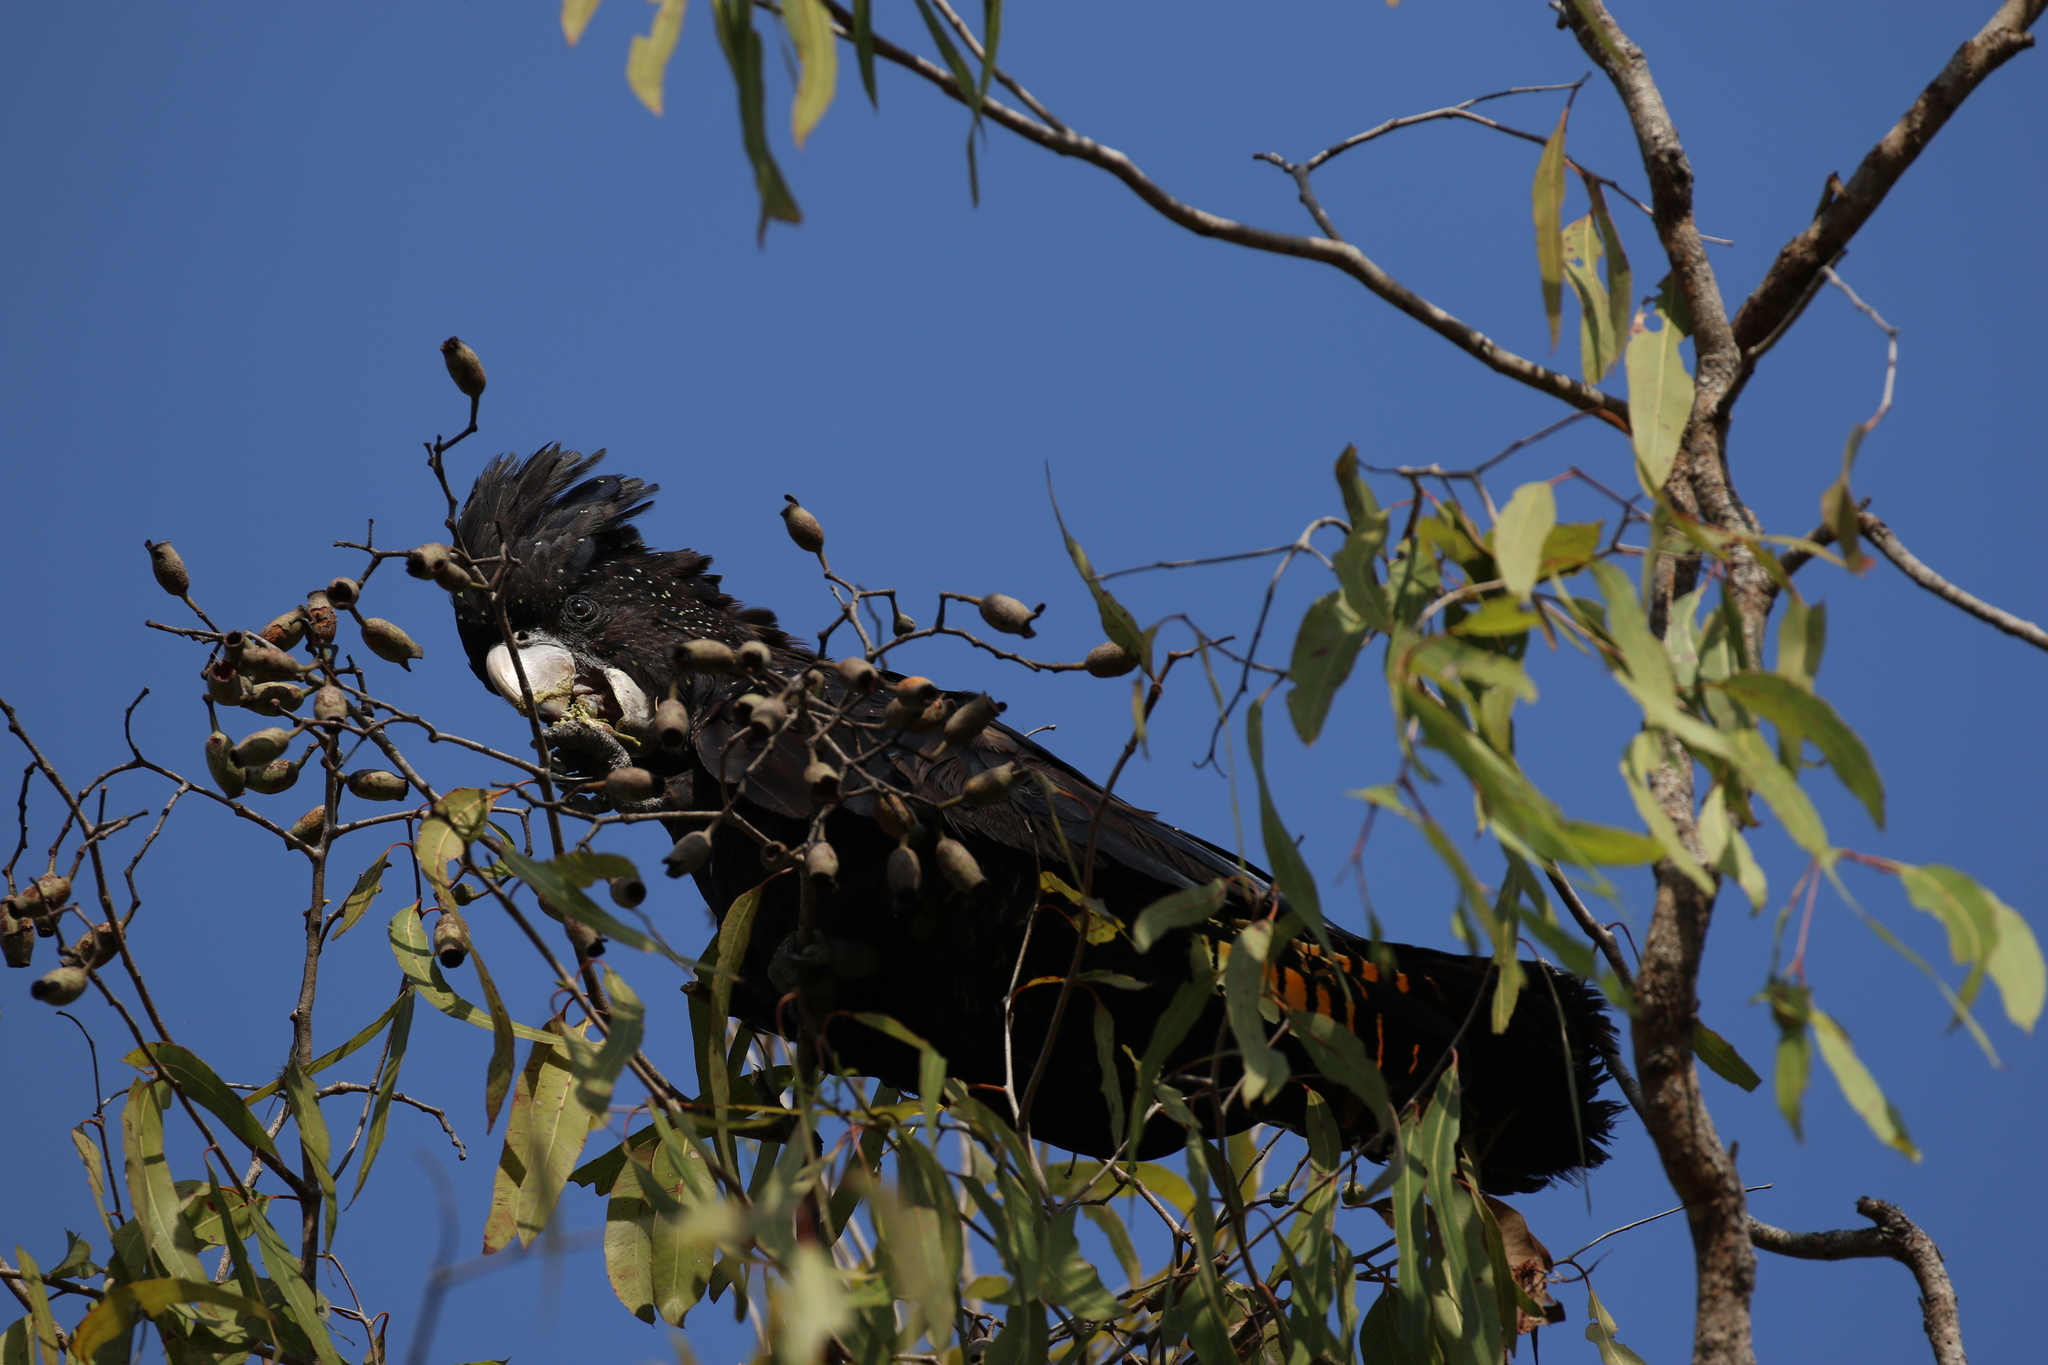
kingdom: Animalia
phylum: Chordata
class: Aves
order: Psittaciformes
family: Psittacidae
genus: Calyptorhynchus
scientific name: Calyptorhynchus banksii
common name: Red-tailed black cockatoo
